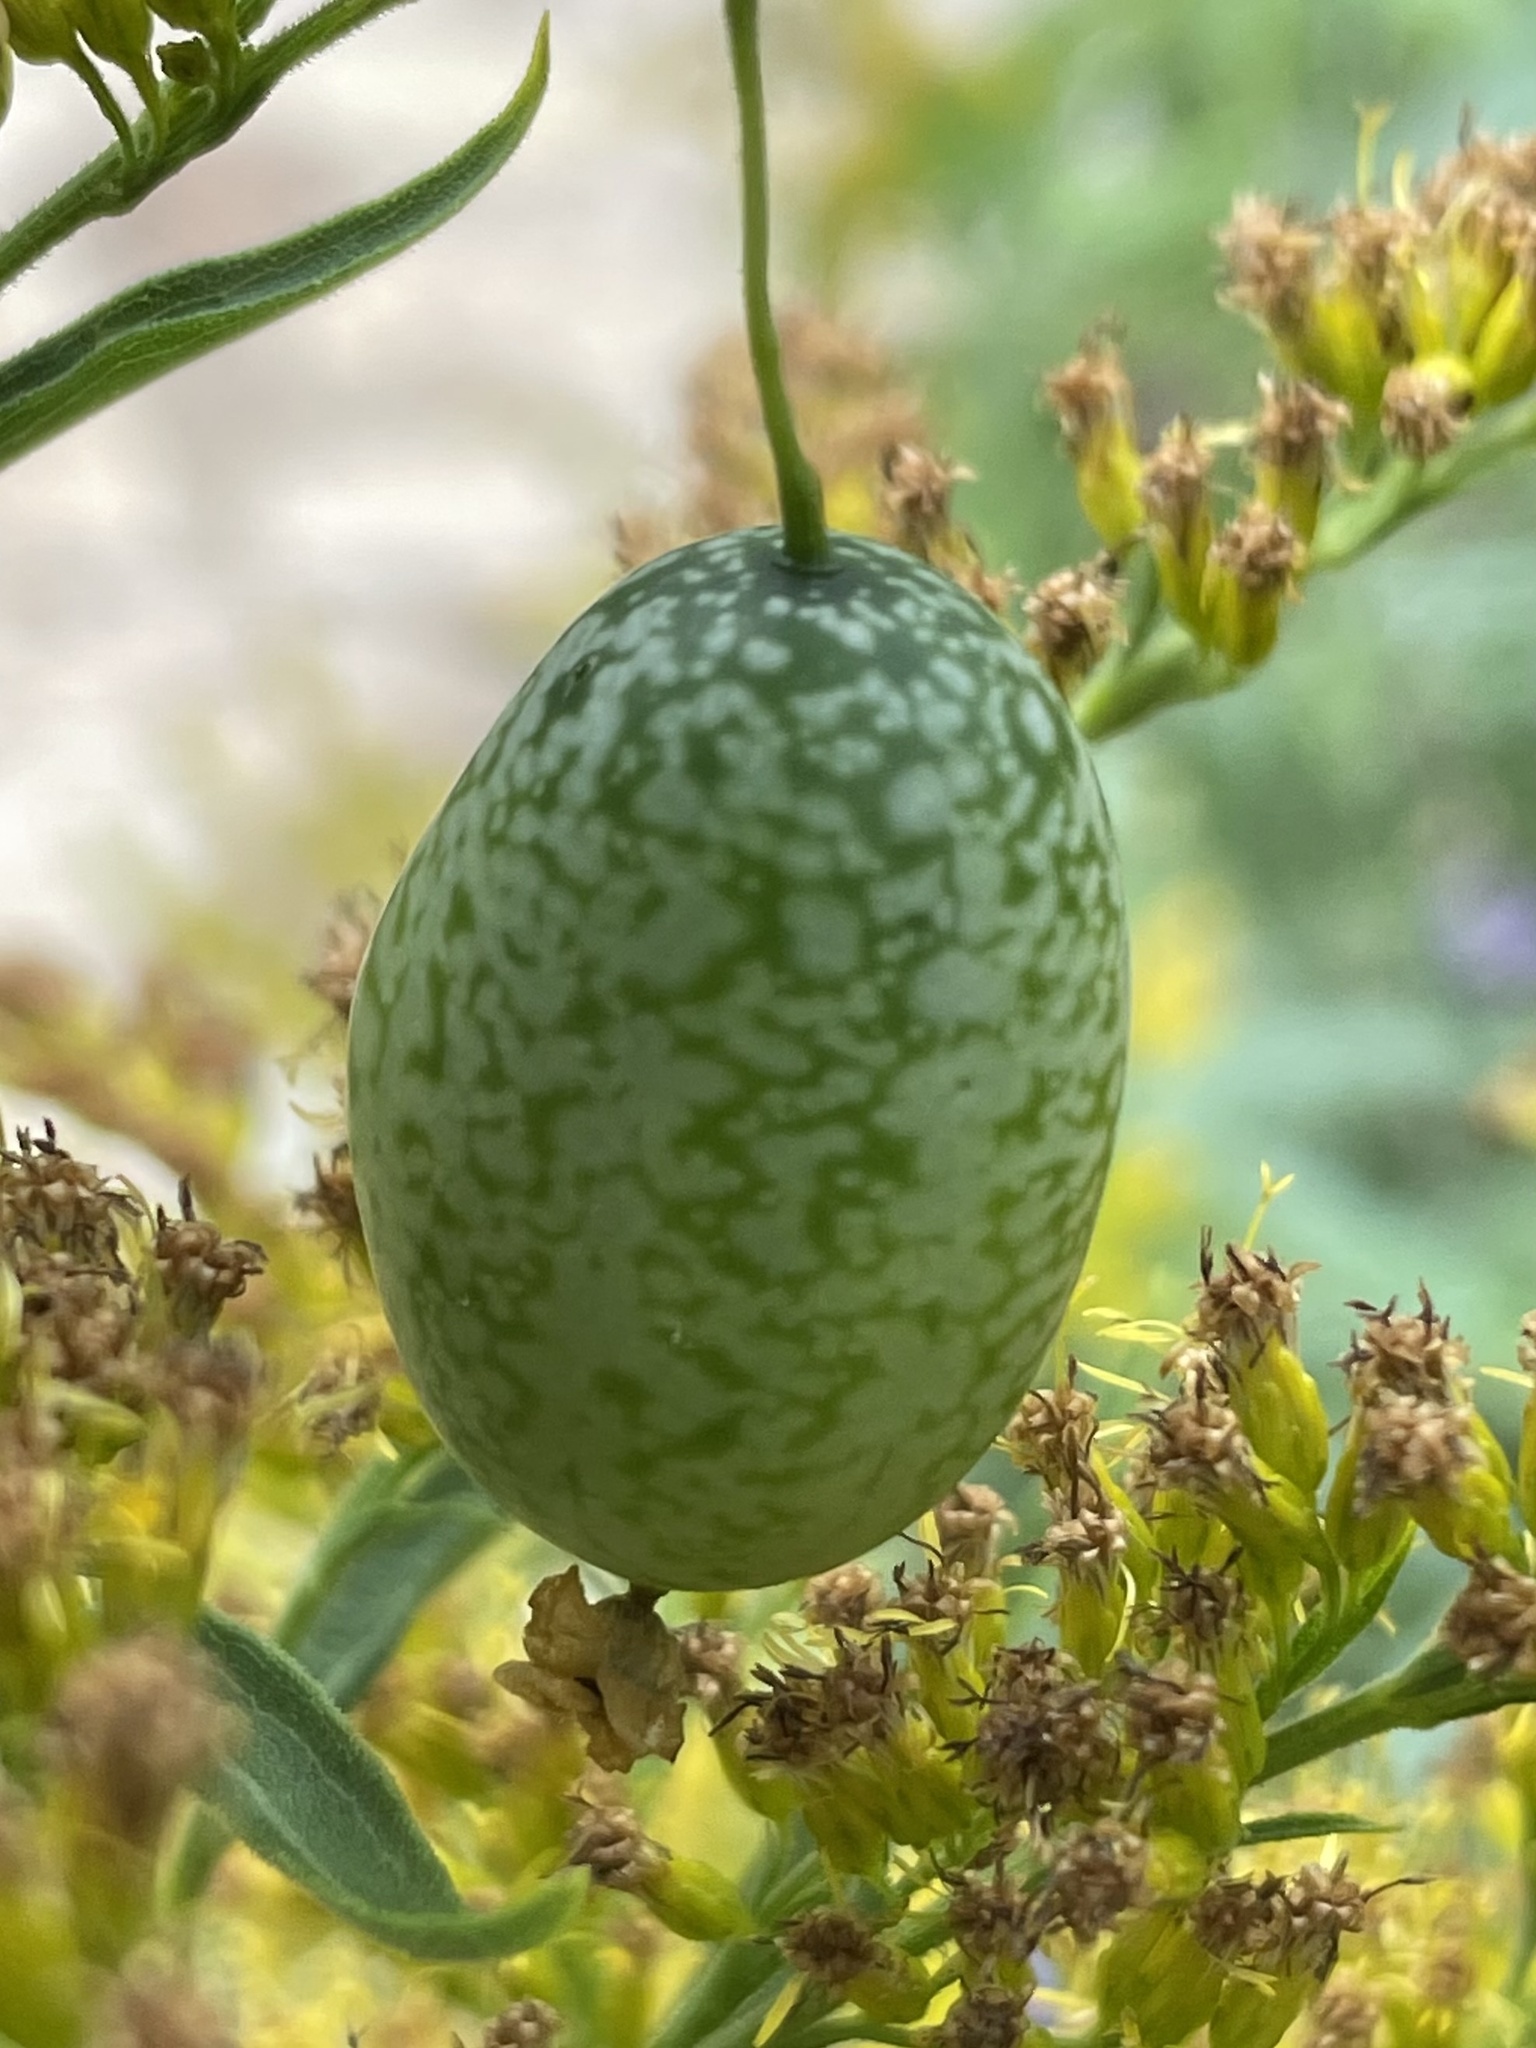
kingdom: Plantae
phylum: Tracheophyta
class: Magnoliopsida
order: Cucurbitales
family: Cucurbitaceae
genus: Melothria
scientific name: Melothria pendula
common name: Creeping-cucumber
